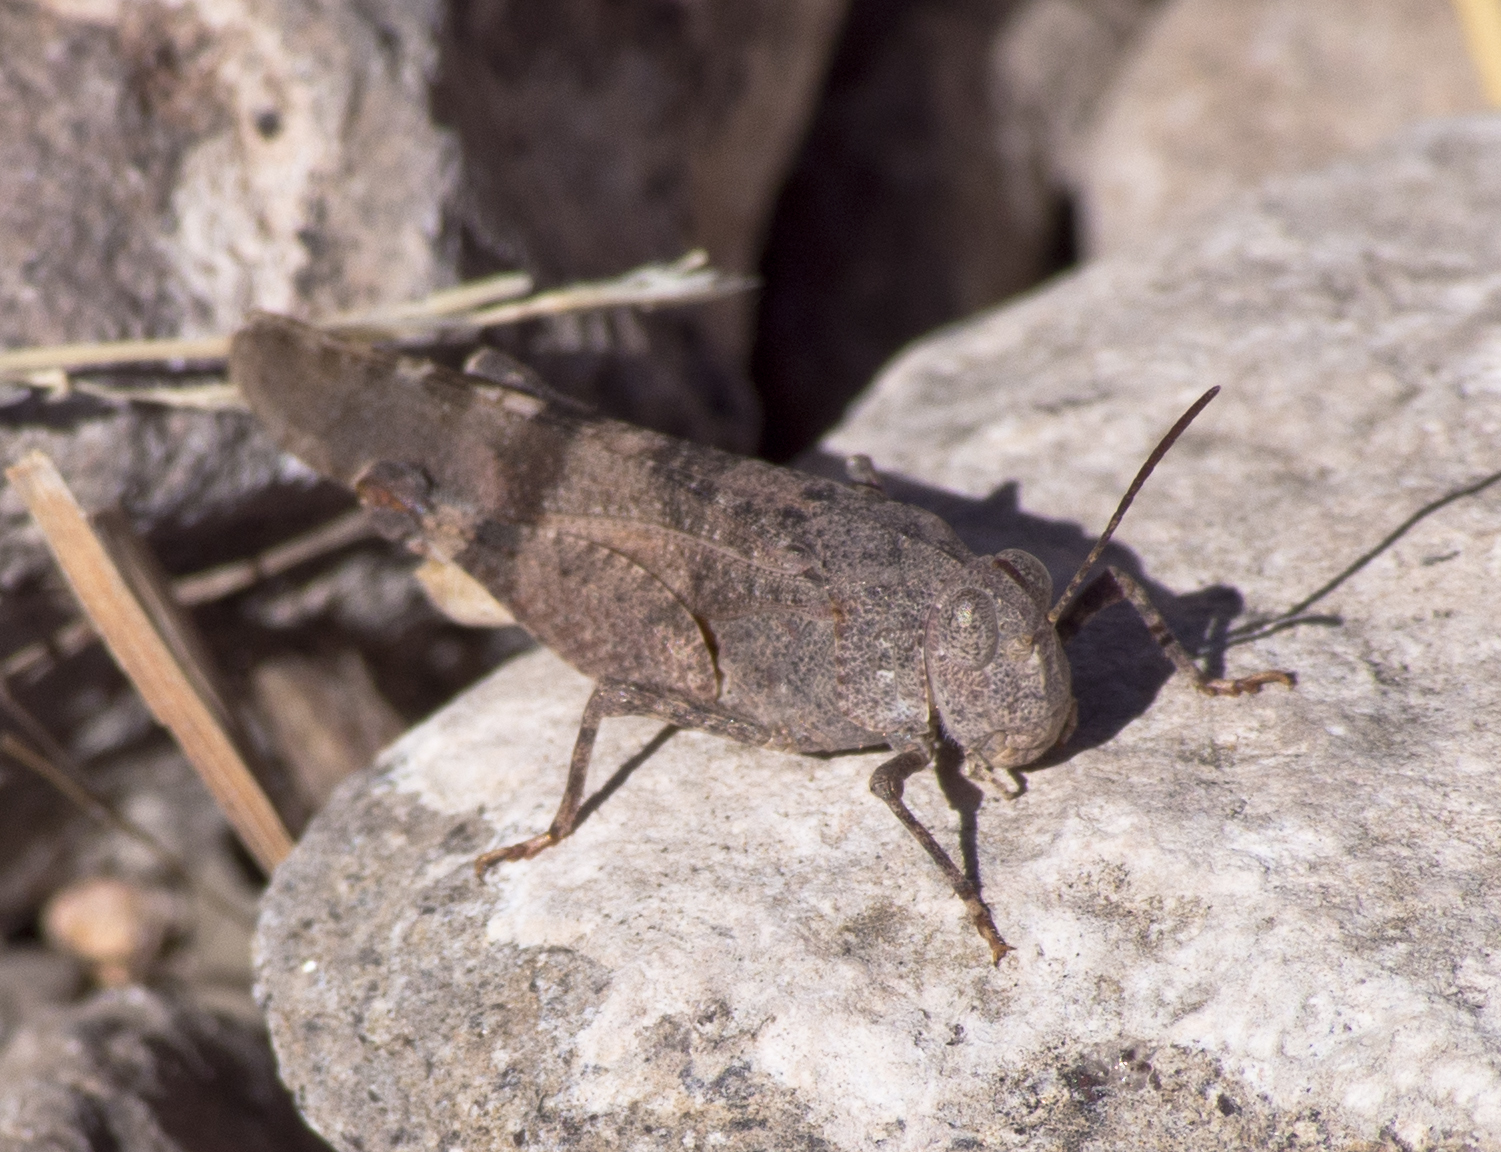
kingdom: Animalia
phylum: Arthropoda
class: Insecta
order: Orthoptera
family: Acrididae
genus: Lactista
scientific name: Lactista azteca
